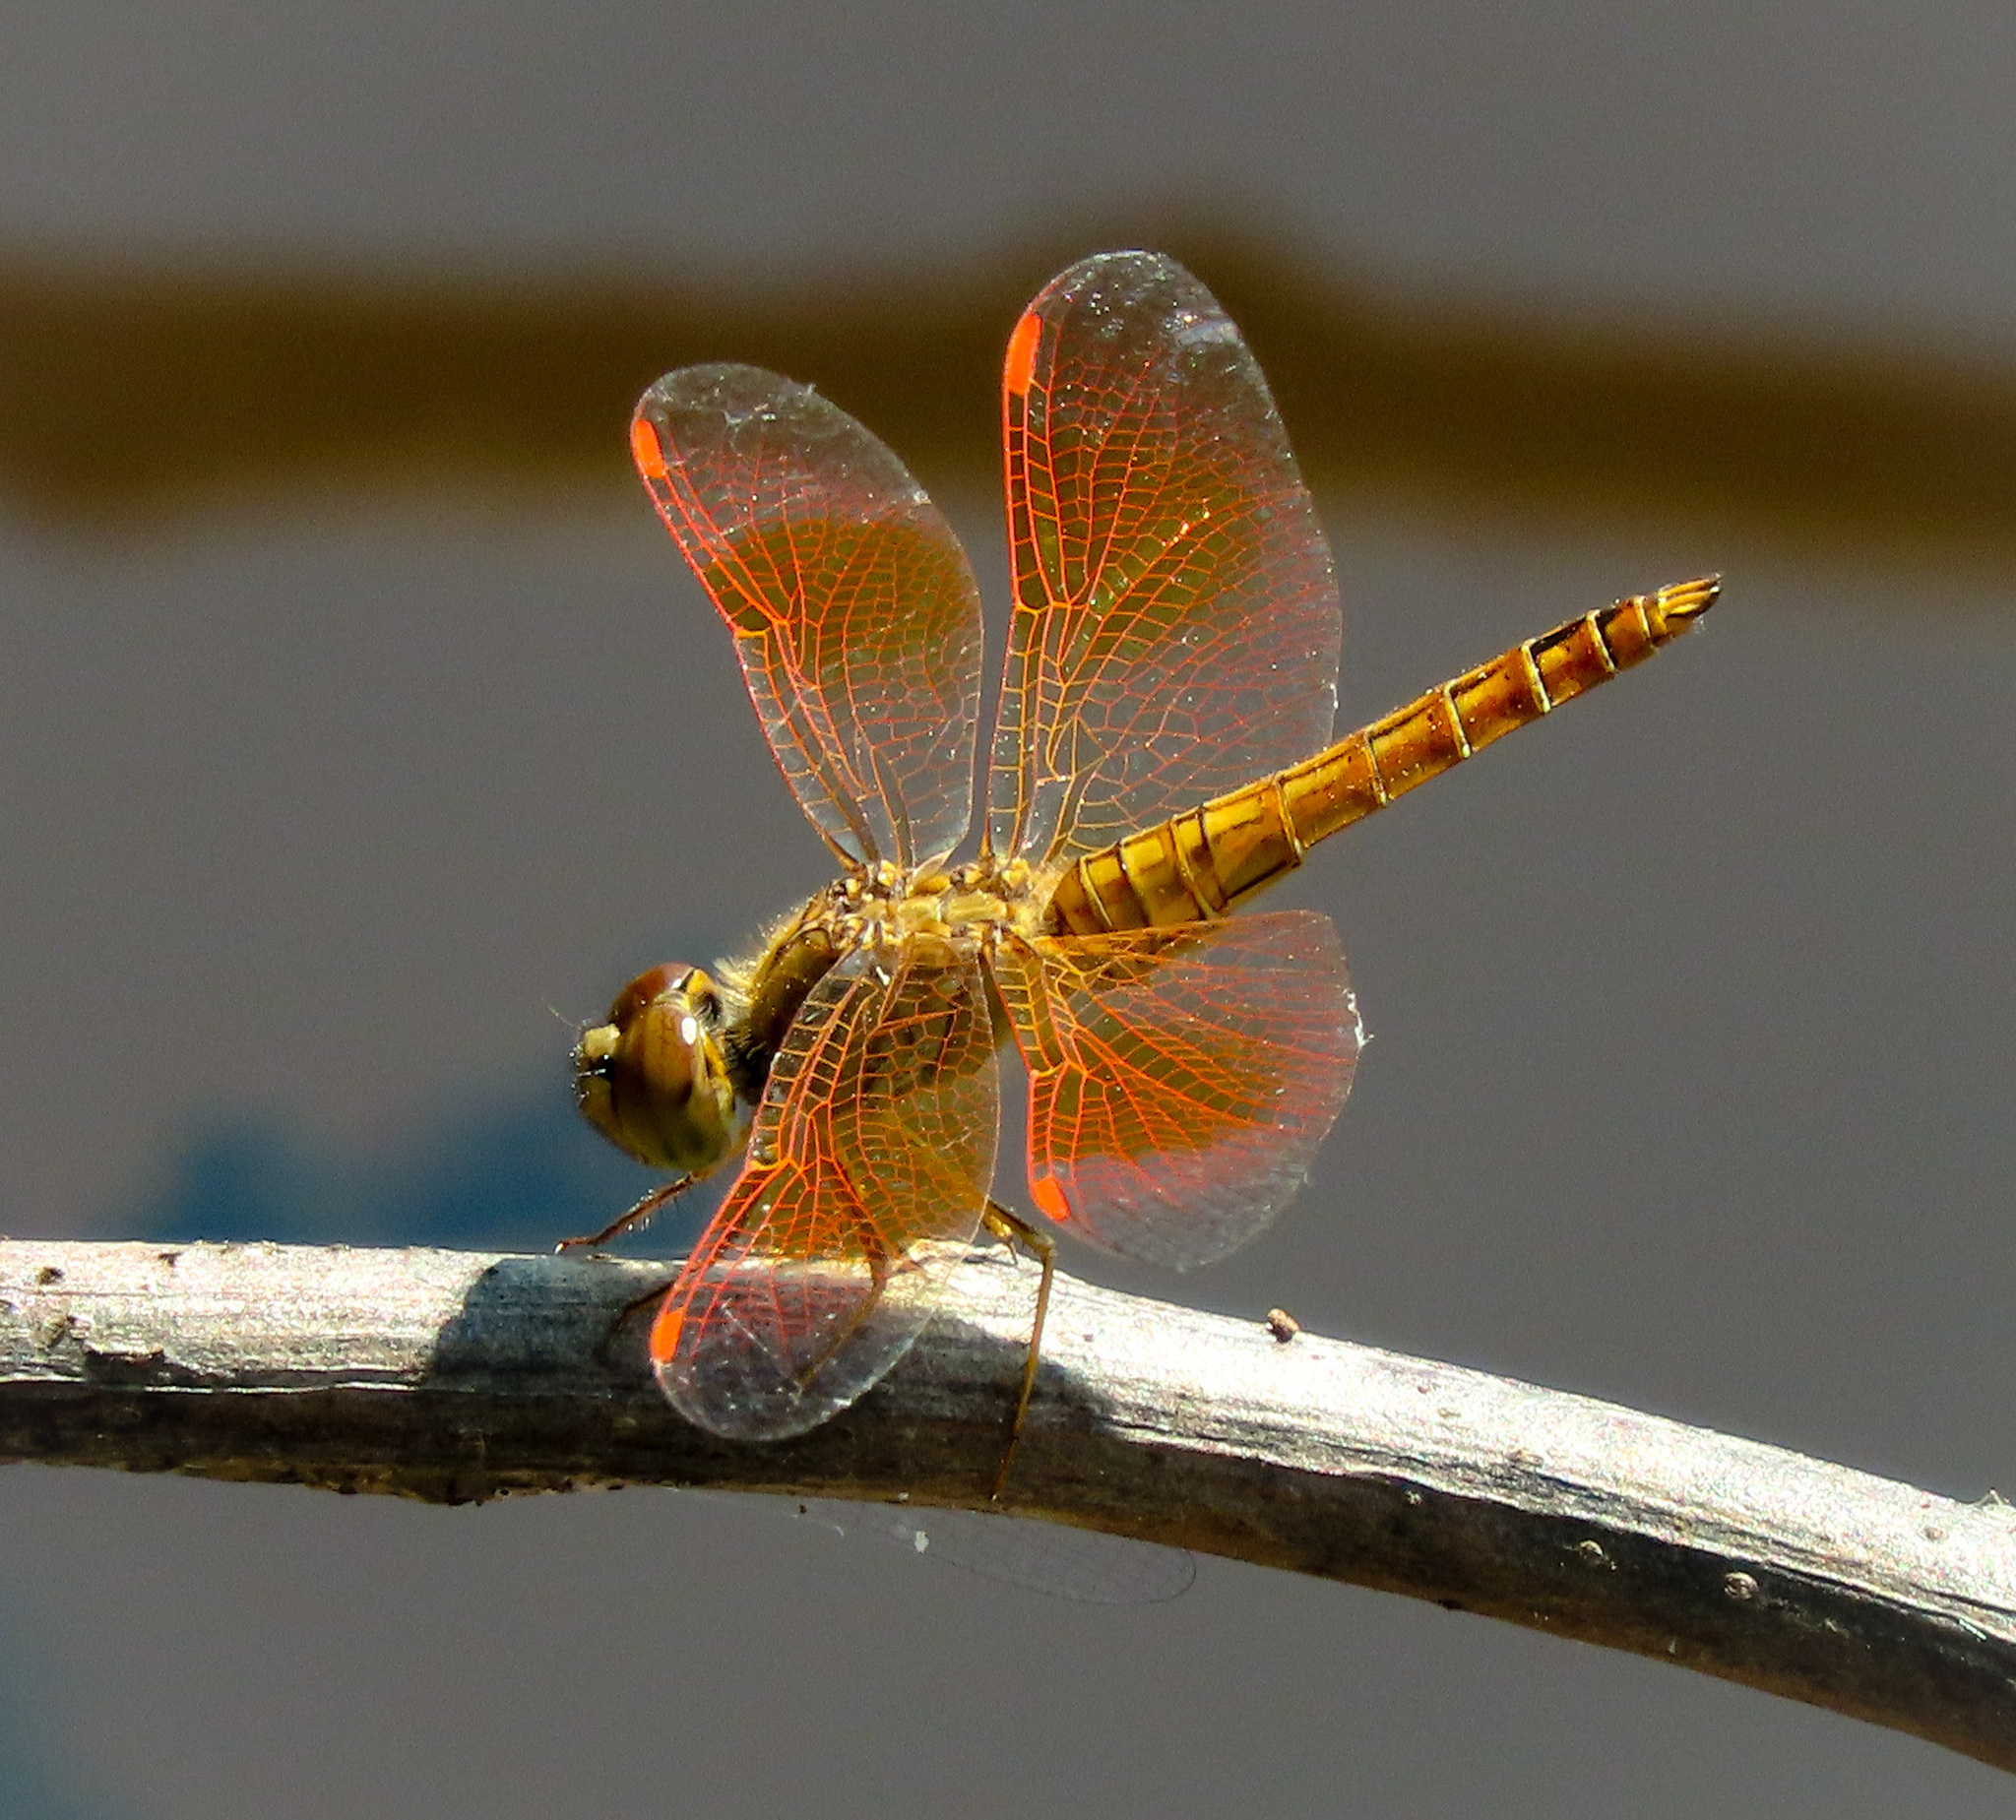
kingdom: Animalia
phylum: Arthropoda
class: Insecta
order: Odonata
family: Libellulidae
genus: Brachythemis
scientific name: Brachythemis contaminata
